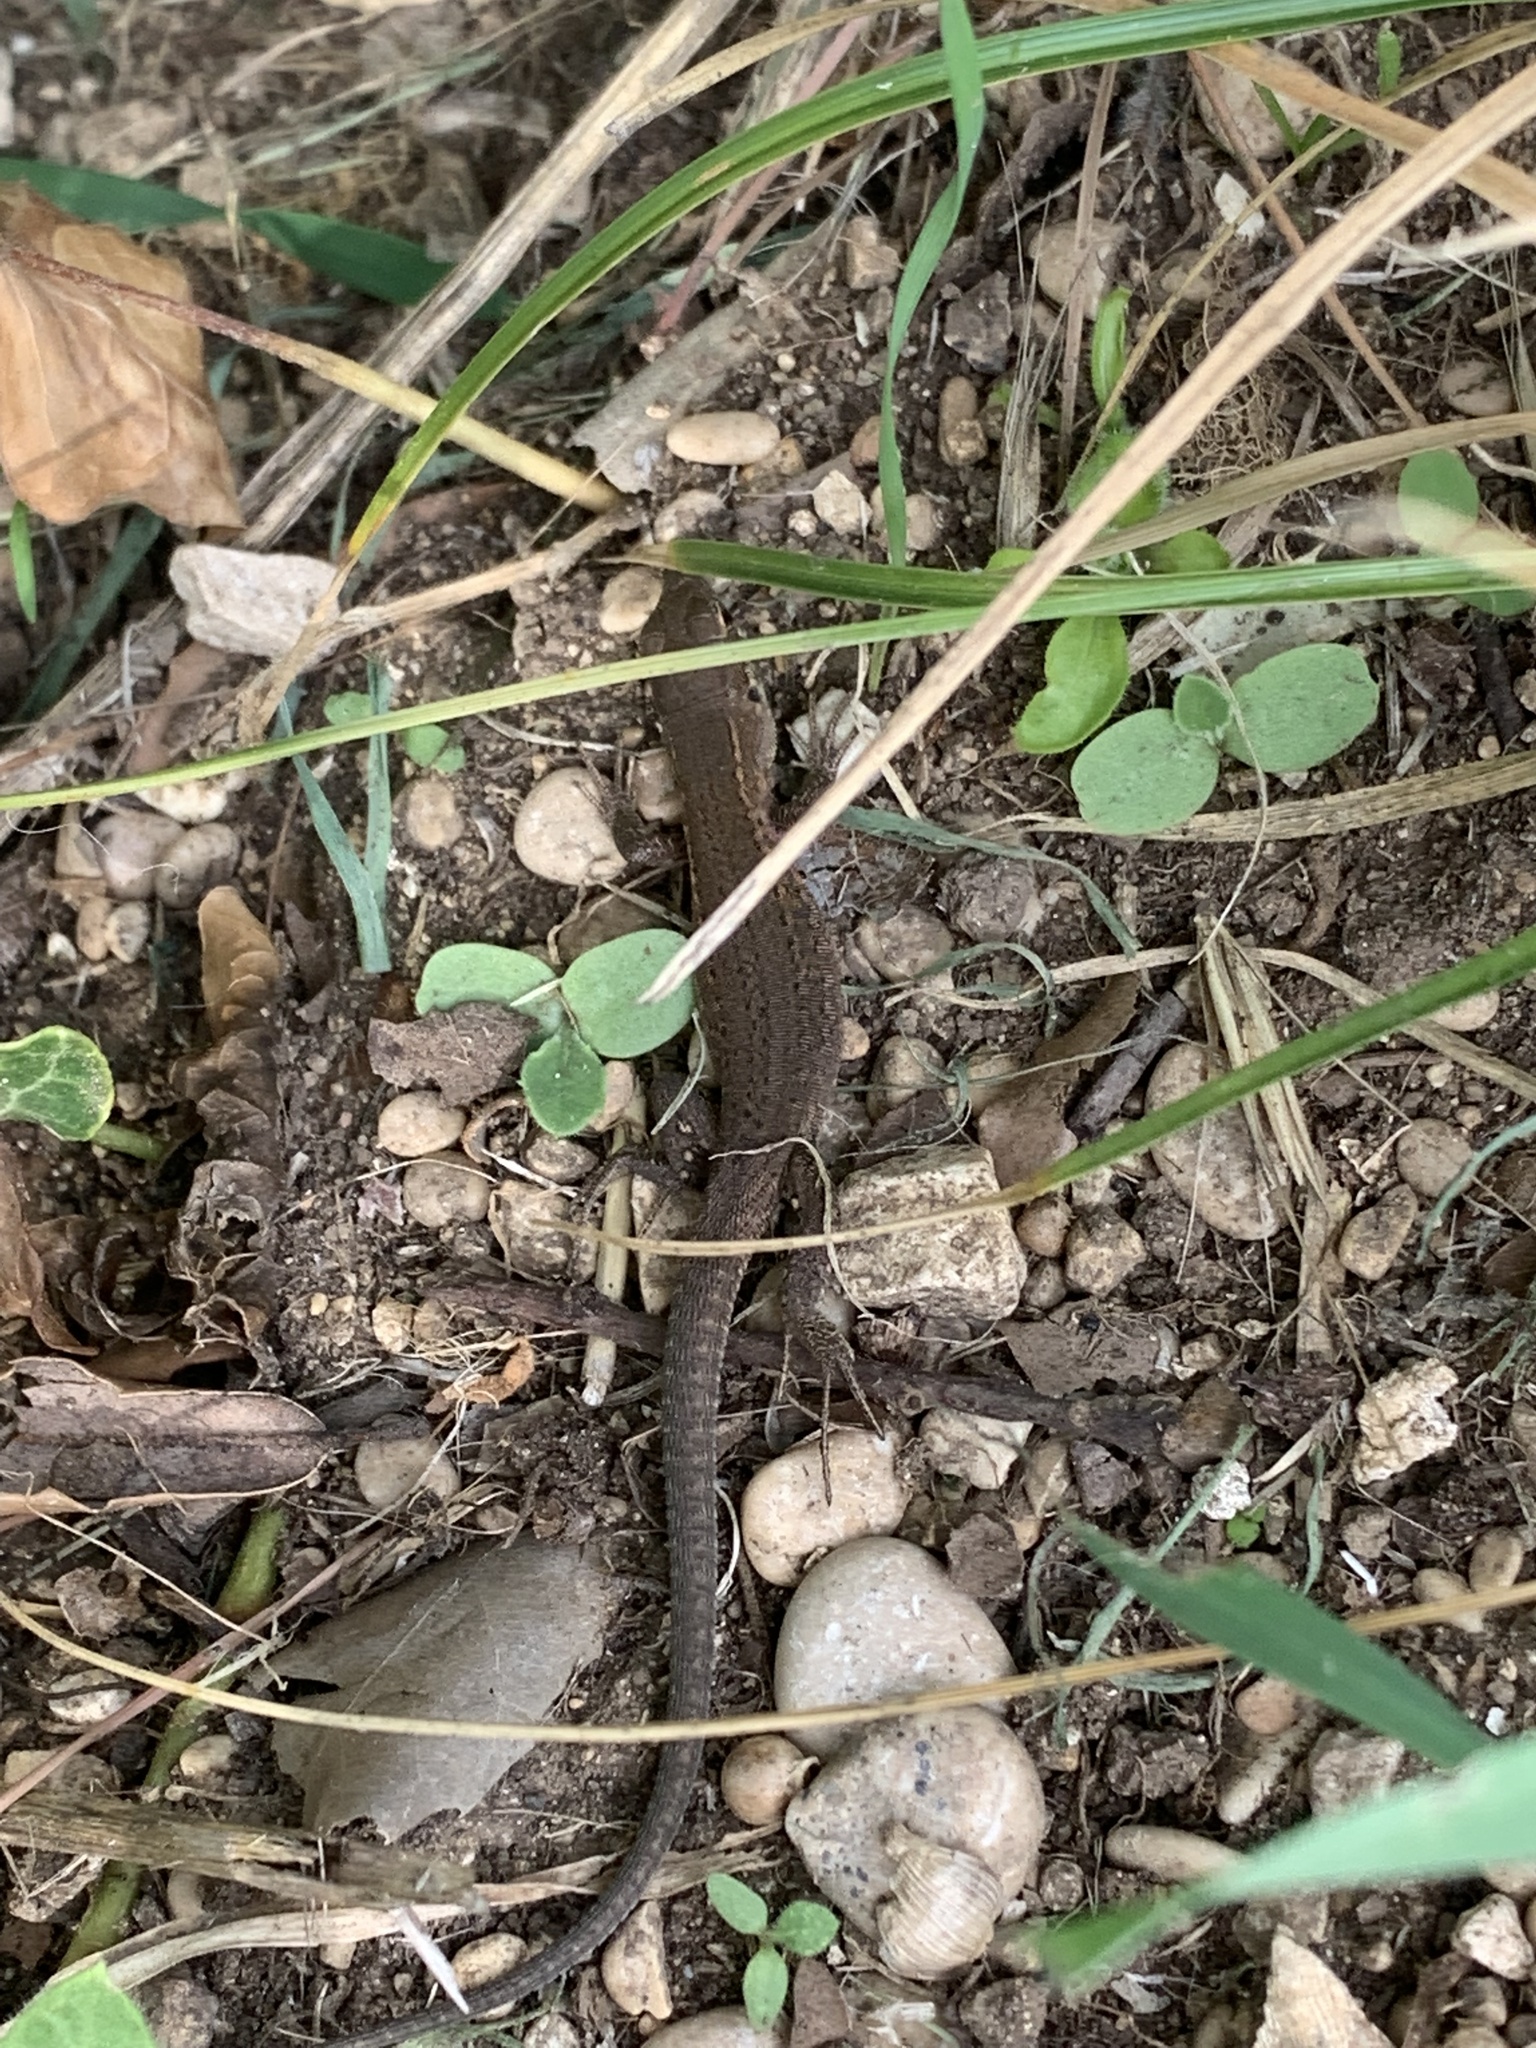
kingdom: Animalia
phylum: Chordata
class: Squamata
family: Lacertidae
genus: Podarcis
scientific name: Podarcis siculus
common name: Italian wall lizard
